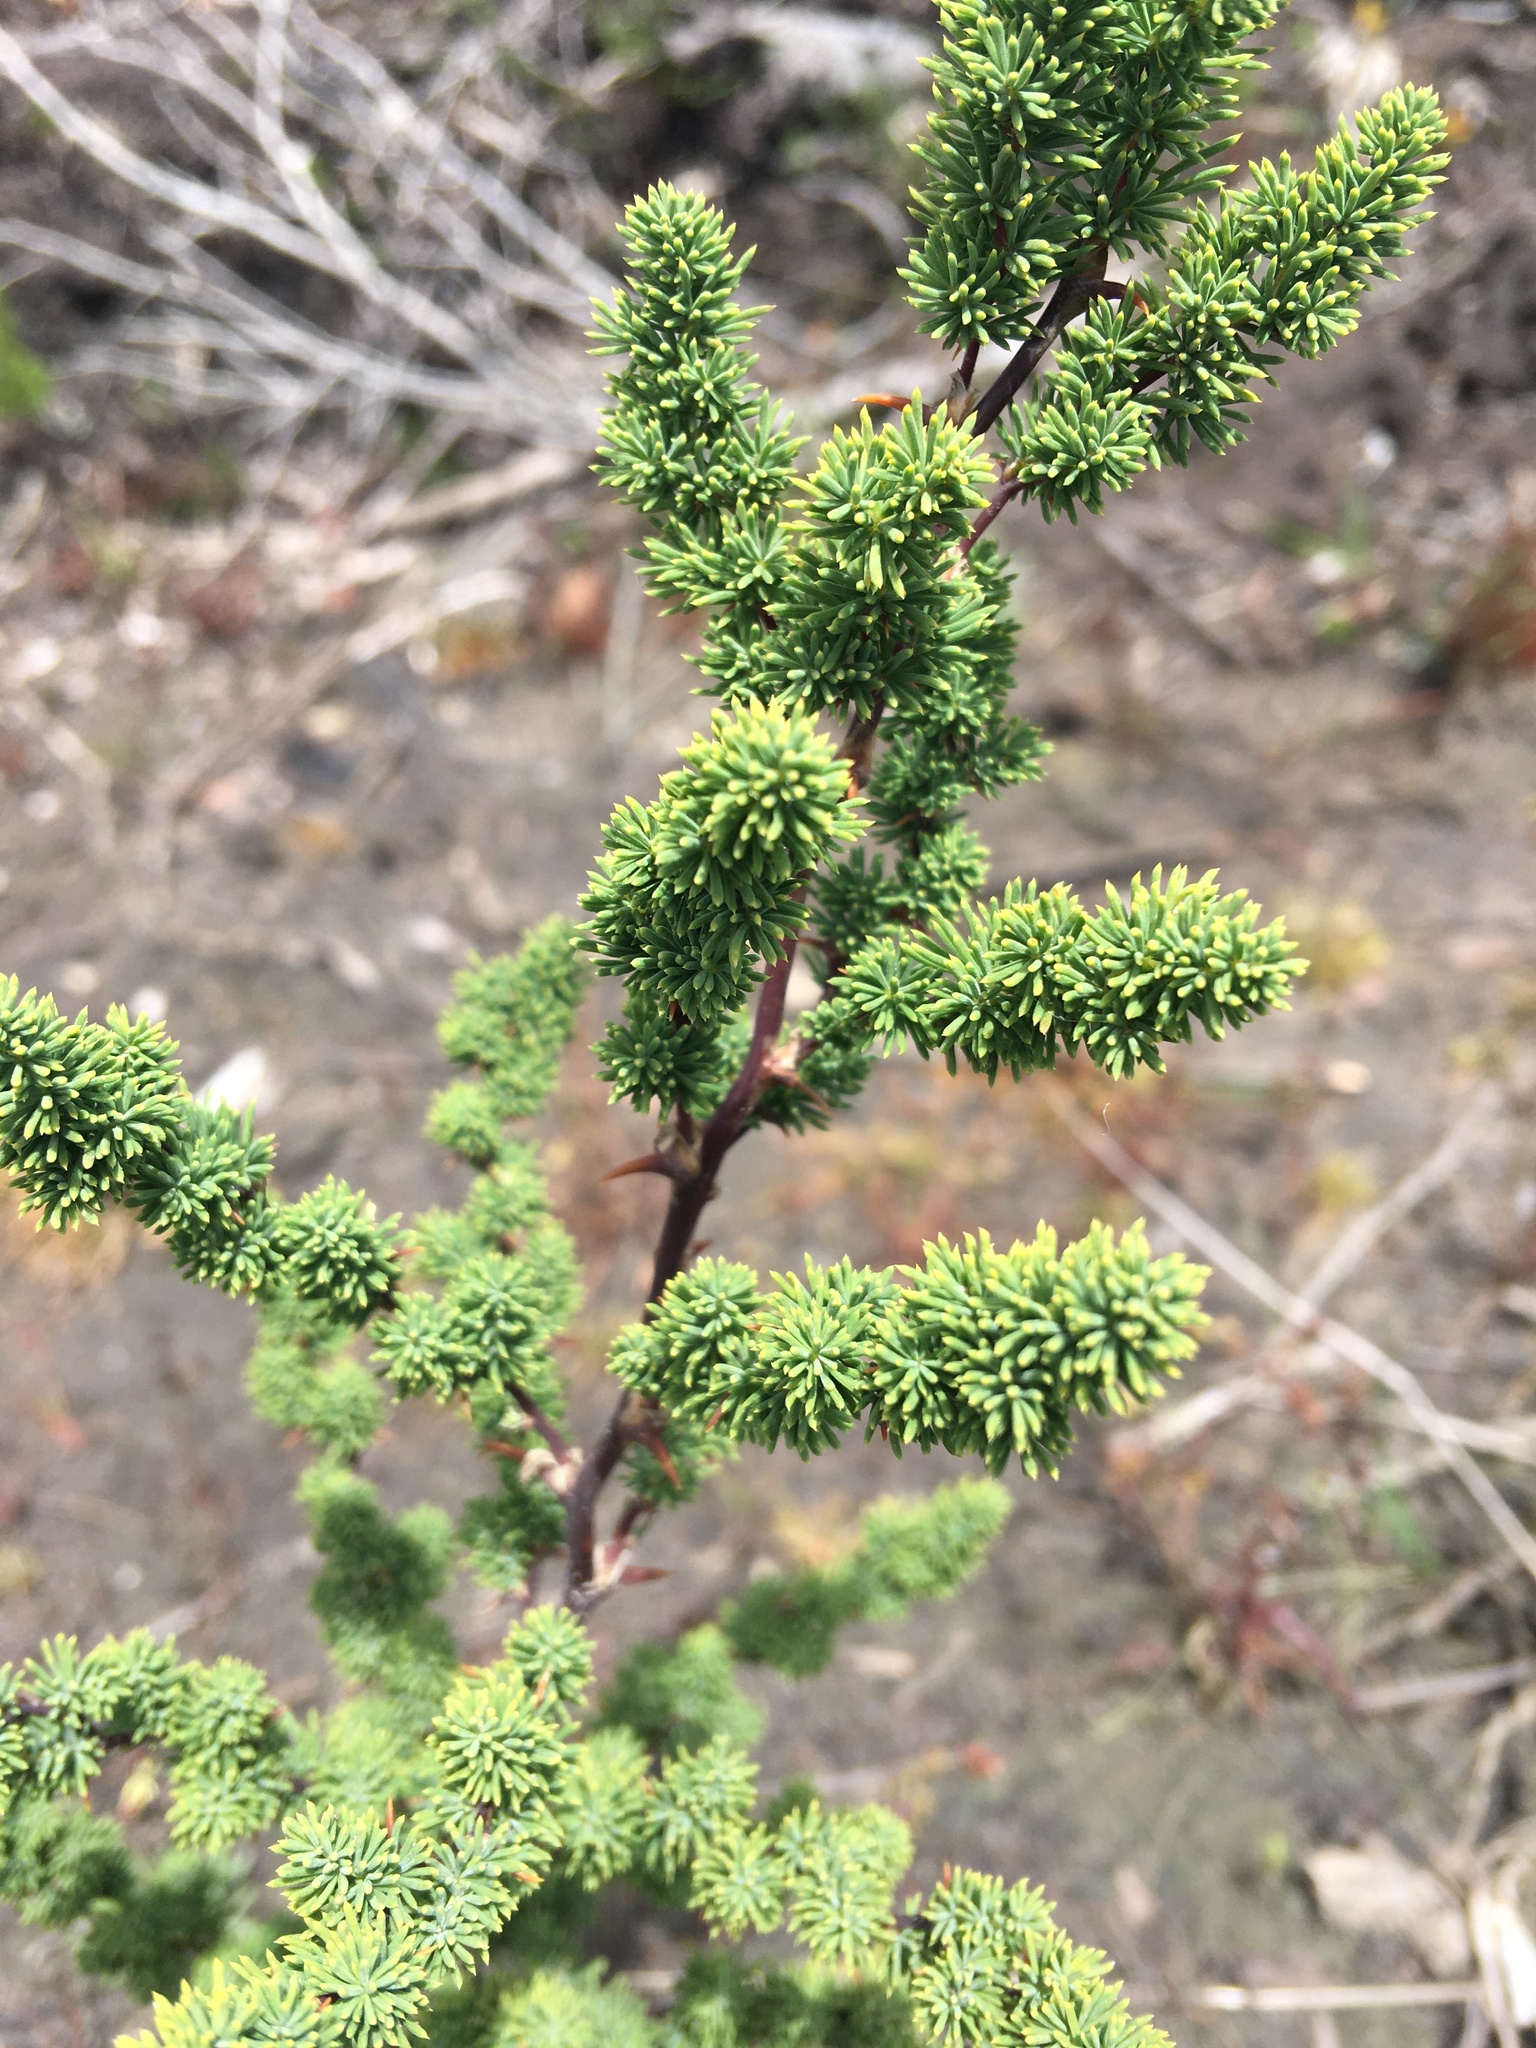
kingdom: Plantae
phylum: Tracheophyta
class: Liliopsida
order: Asparagales
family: Asparagaceae
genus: Asparagus
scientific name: Asparagus rubicundus
